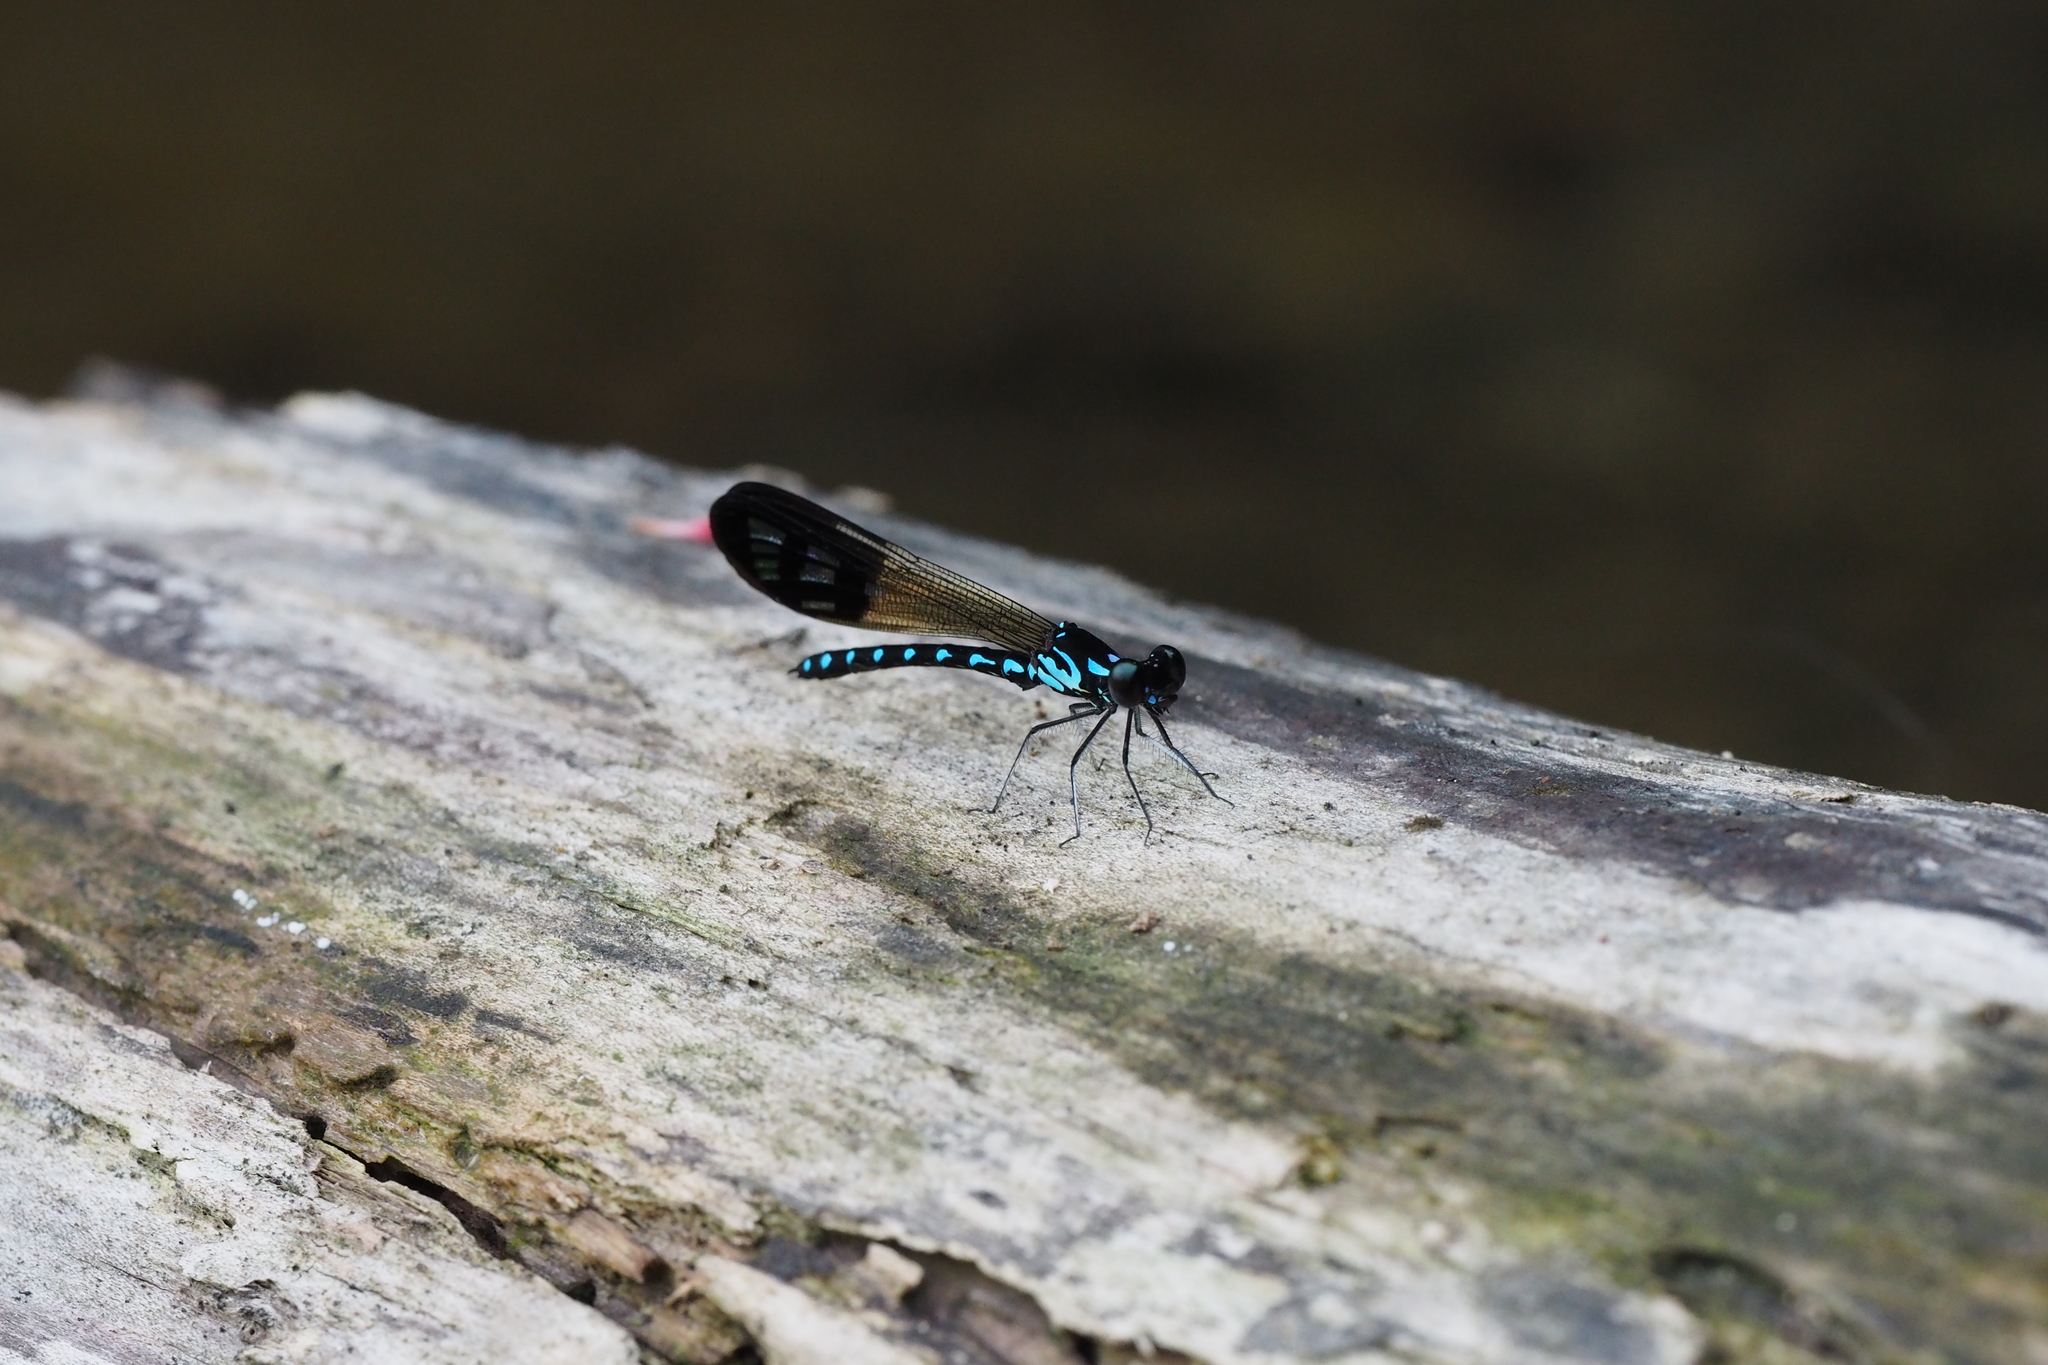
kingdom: Animalia
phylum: Arthropoda
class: Insecta
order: Odonata
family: Chlorocyphidae
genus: Heliocypha
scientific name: Heliocypha perforata
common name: Common blue jewel
